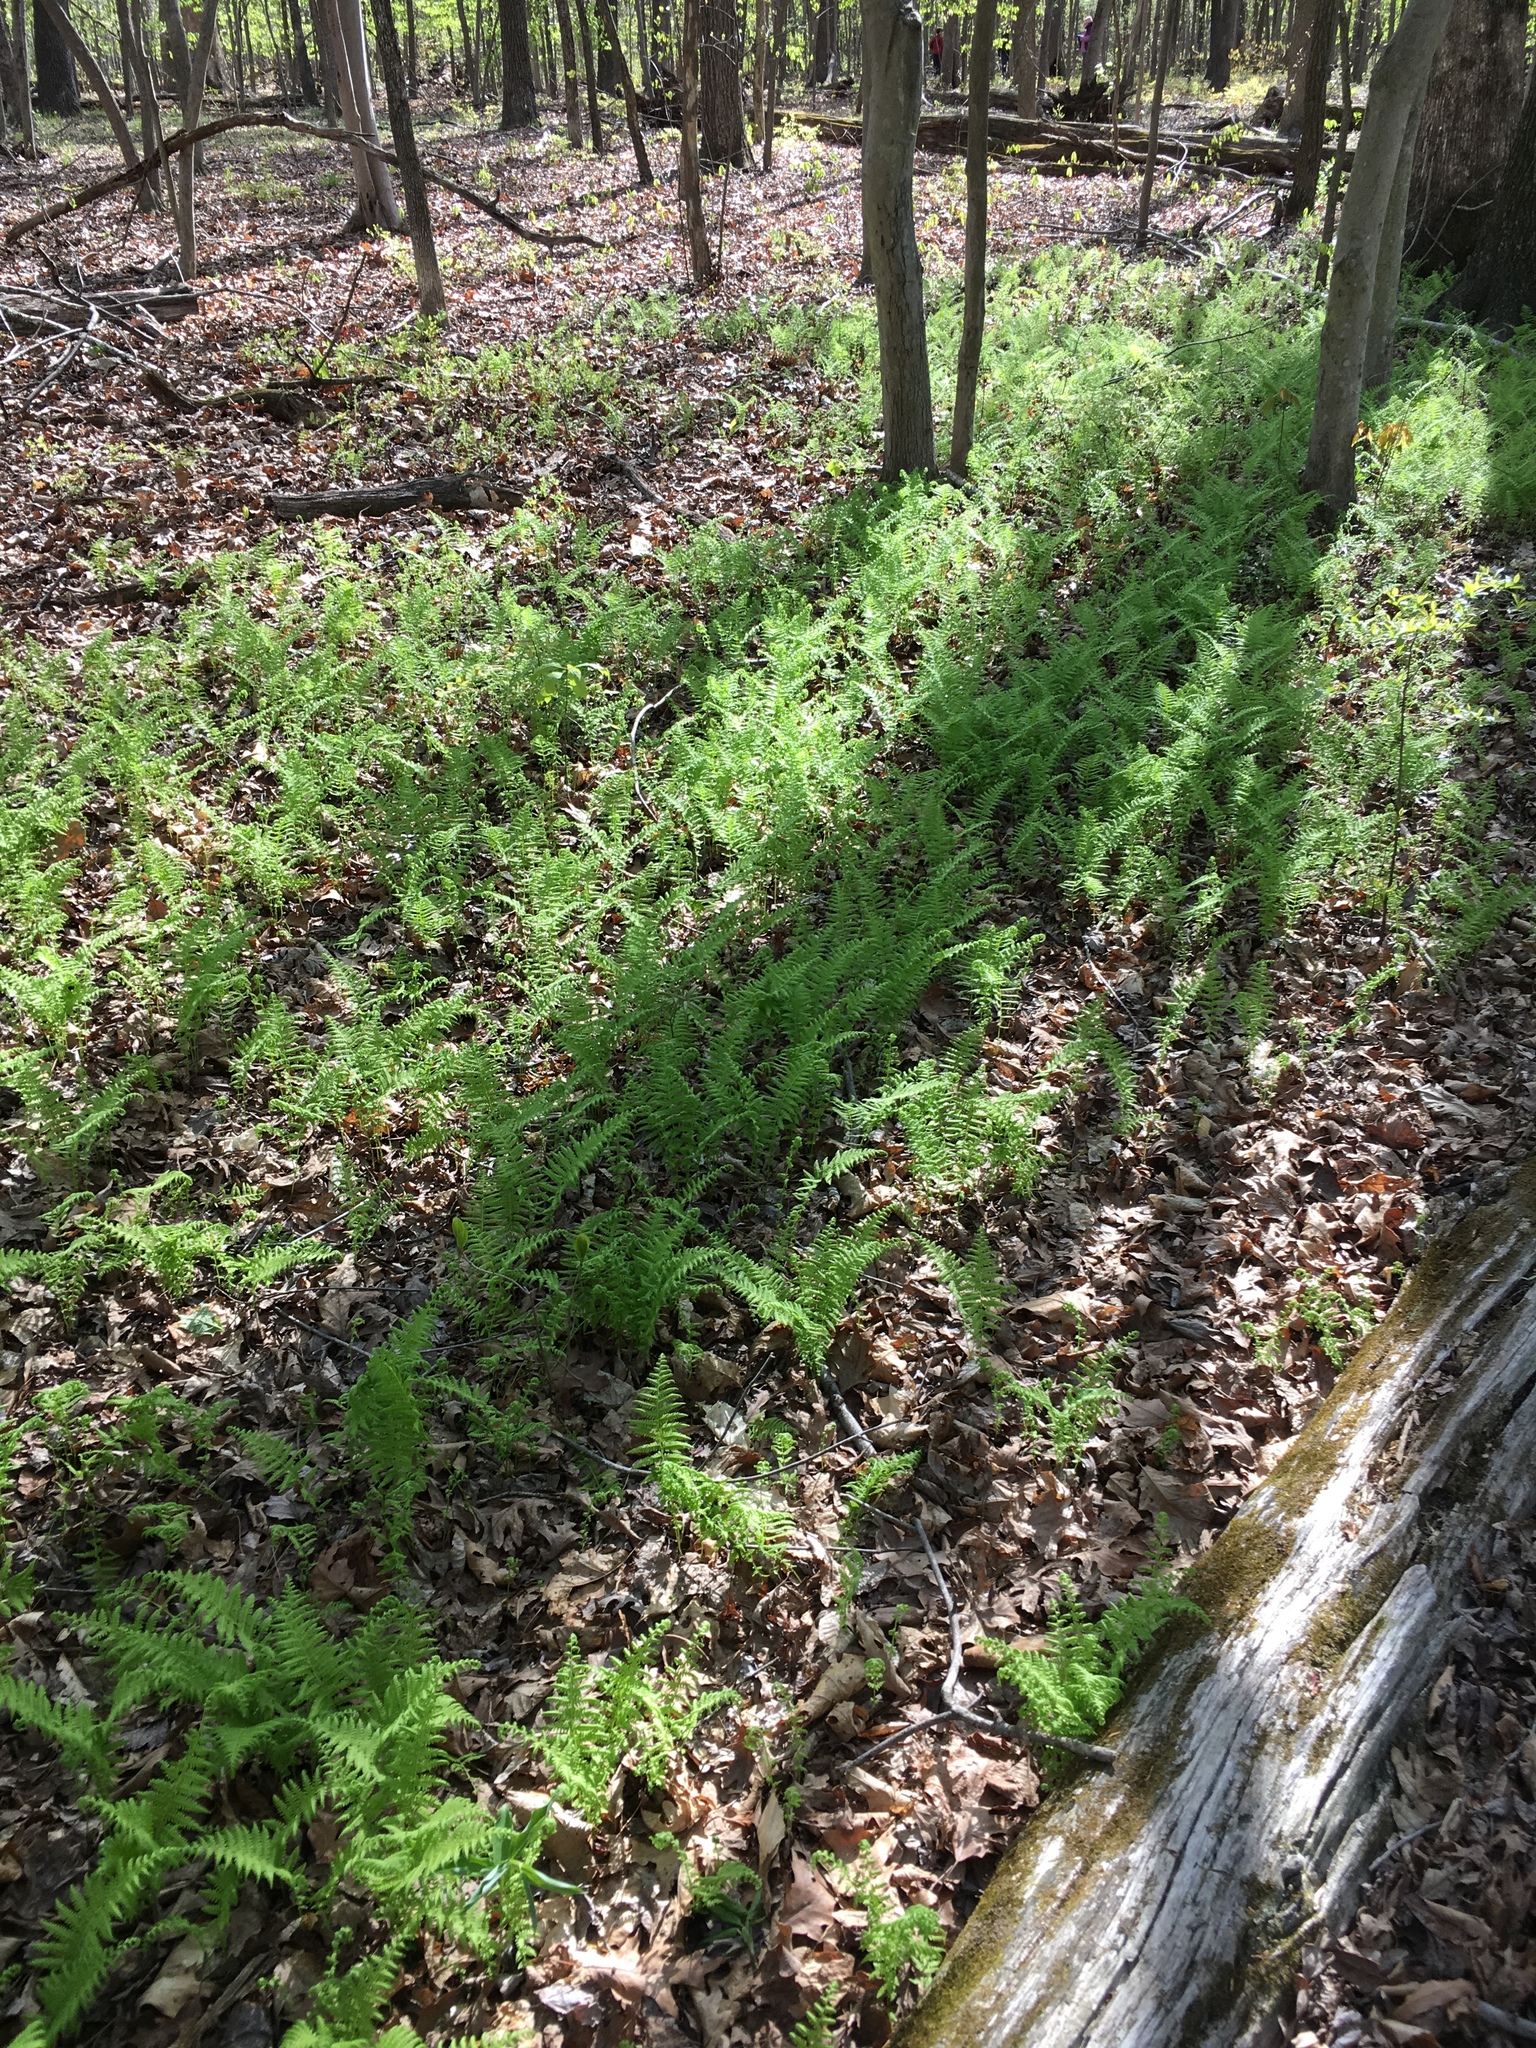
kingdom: Plantae
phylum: Tracheophyta
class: Polypodiopsida
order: Polypodiales
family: Thelypteridaceae
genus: Amauropelta
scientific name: Amauropelta noveboracensis
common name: New york fern
